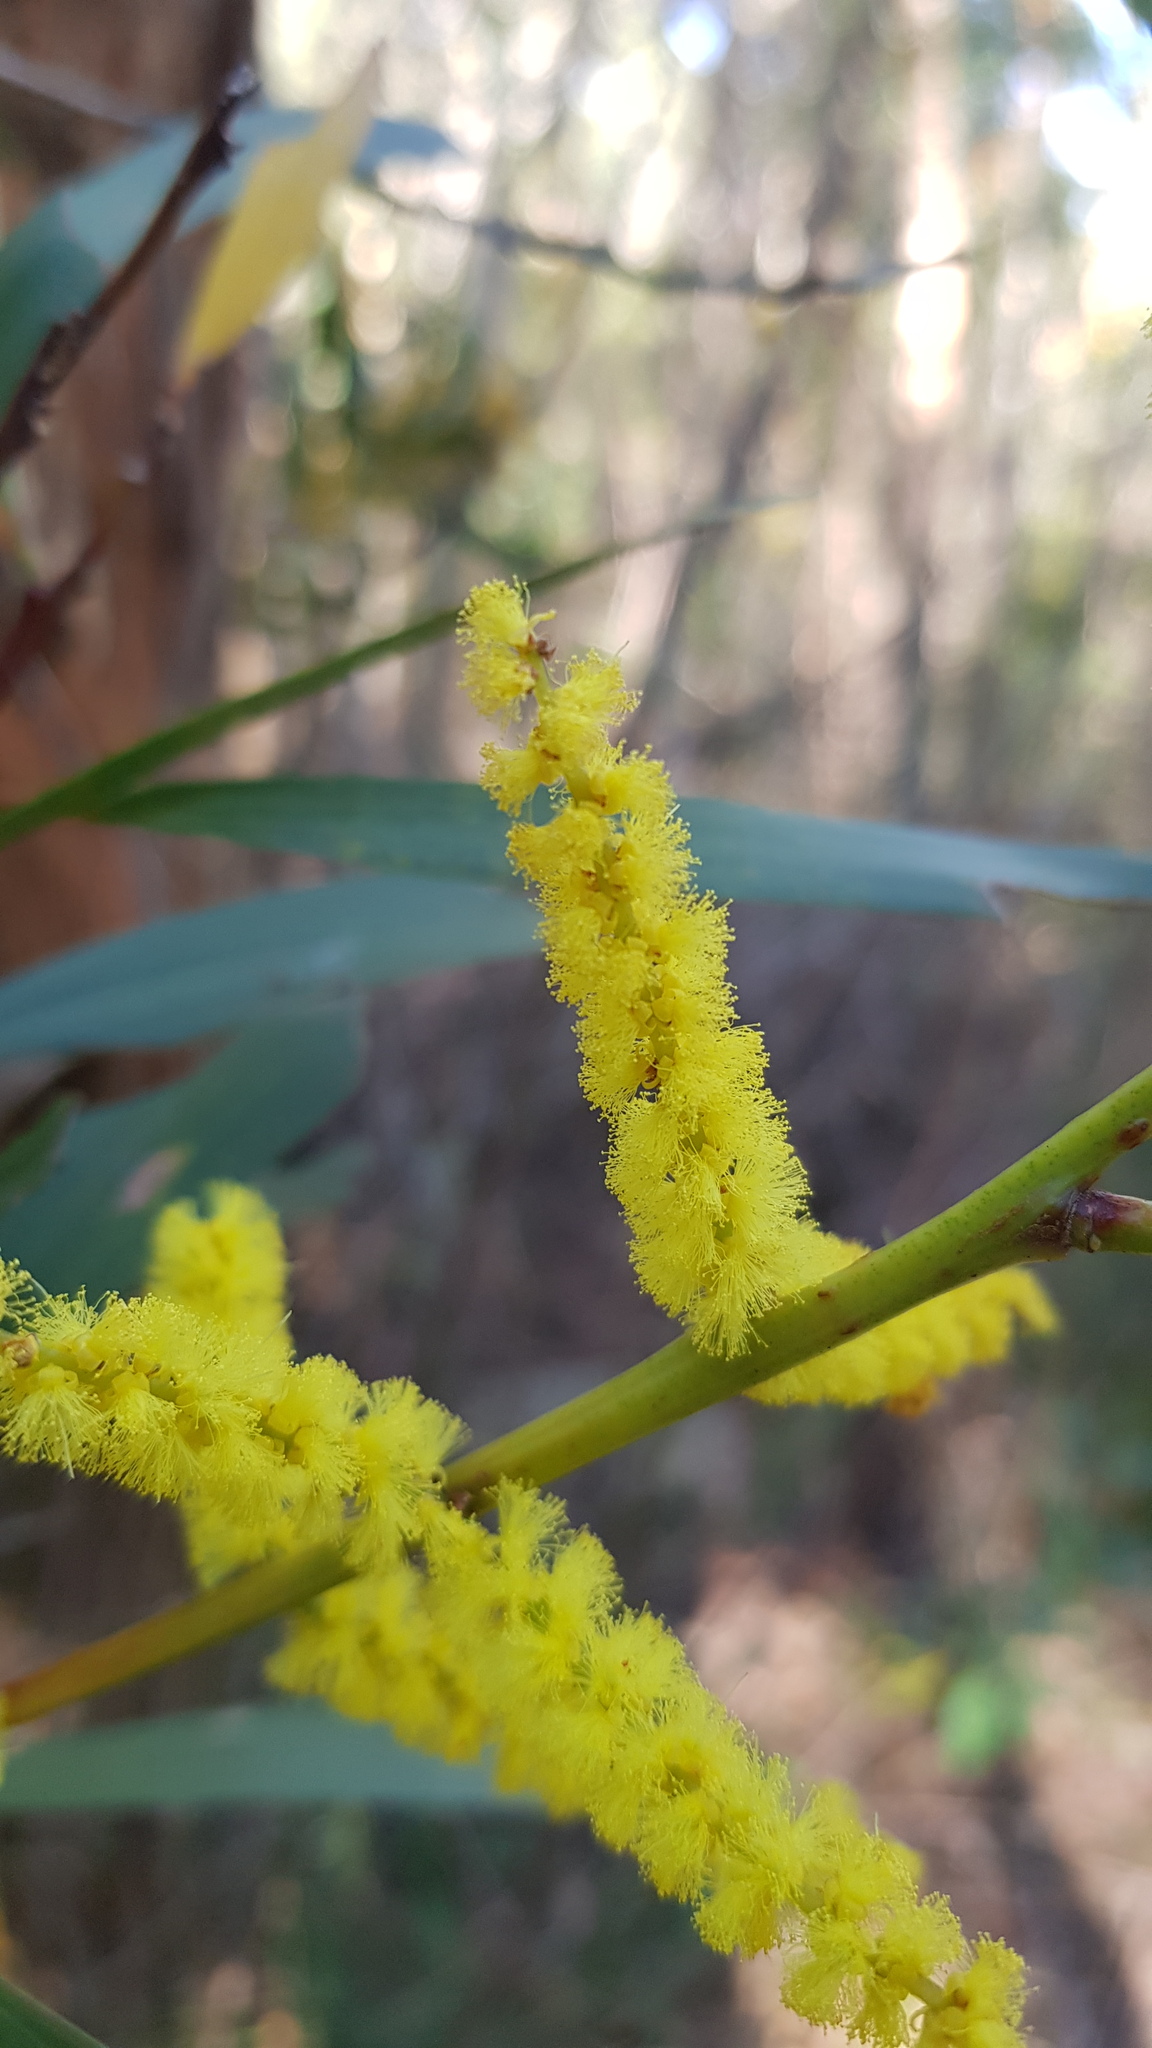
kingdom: Plantae
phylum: Tracheophyta
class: Magnoliopsida
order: Fabales
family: Fabaceae
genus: Acacia
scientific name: Acacia longifolia
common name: Sydney golden wattle
